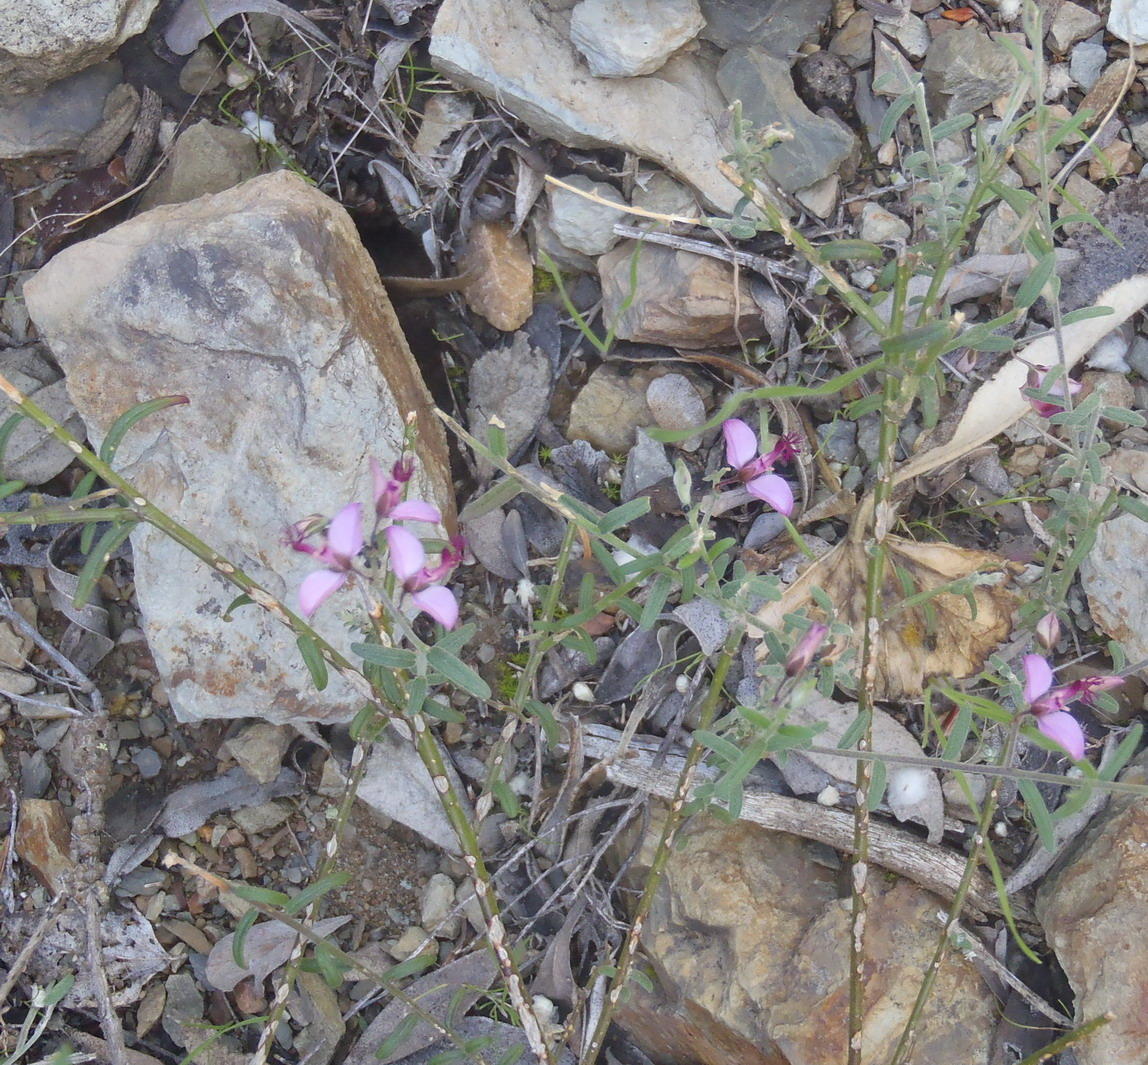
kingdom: Plantae
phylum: Tracheophyta
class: Magnoliopsida
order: Fabales
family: Polygalaceae
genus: Polygala
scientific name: Polygala scabra
